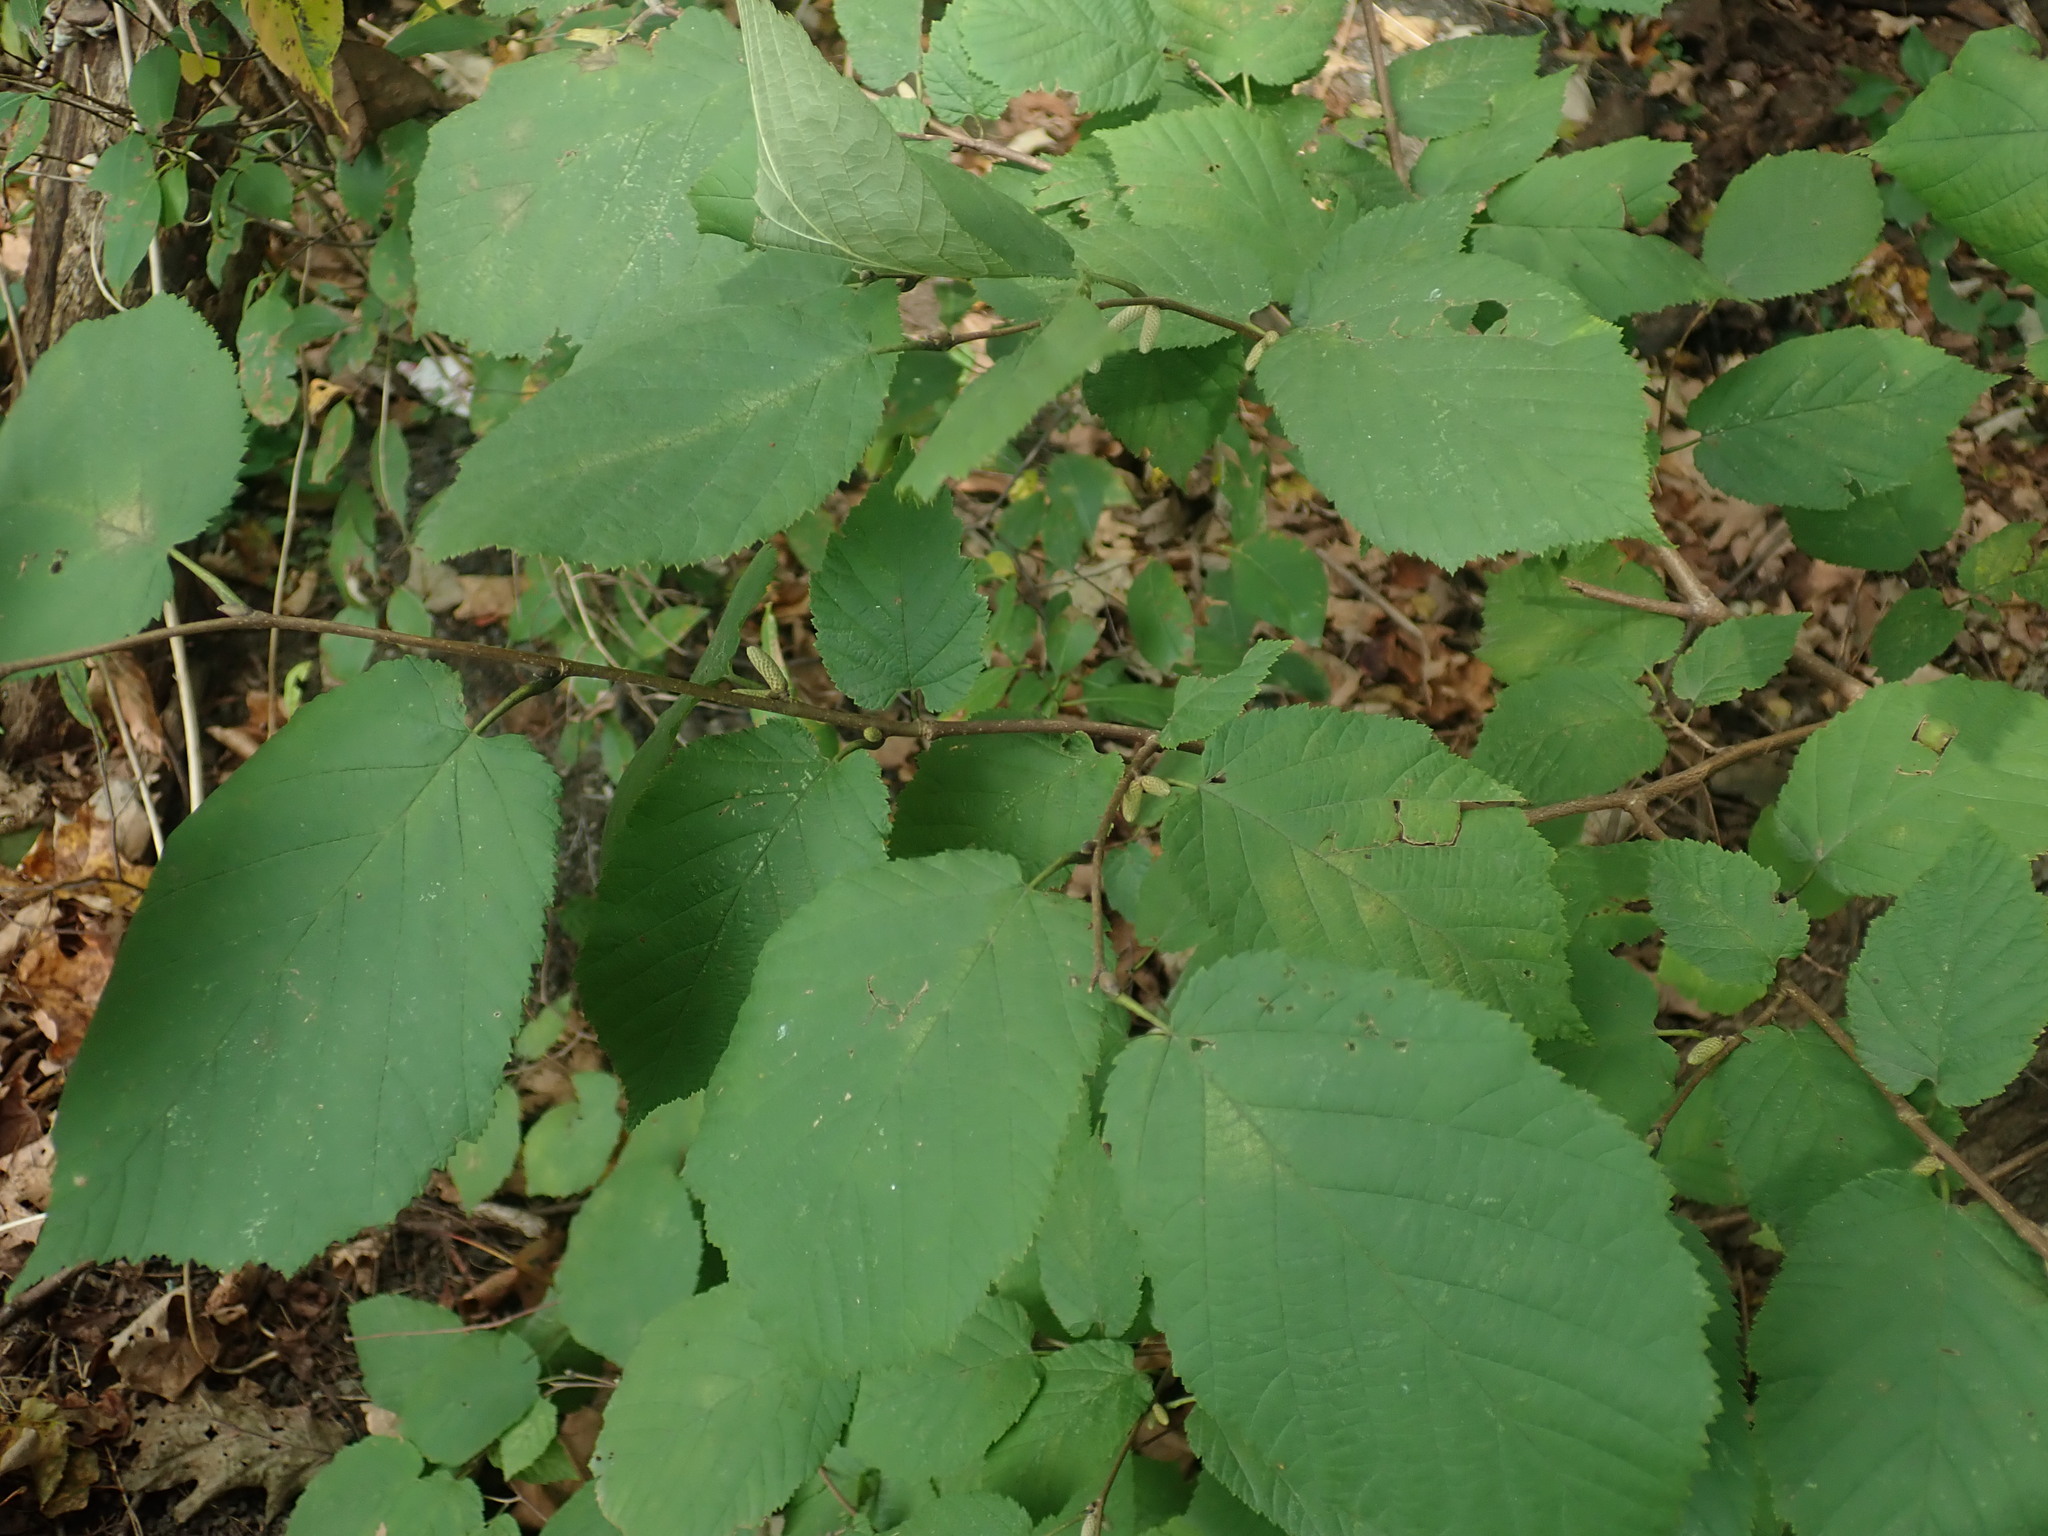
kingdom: Plantae
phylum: Tracheophyta
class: Magnoliopsida
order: Fagales
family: Betulaceae
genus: Corylus
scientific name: Corylus cornuta
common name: Beaked hazel
